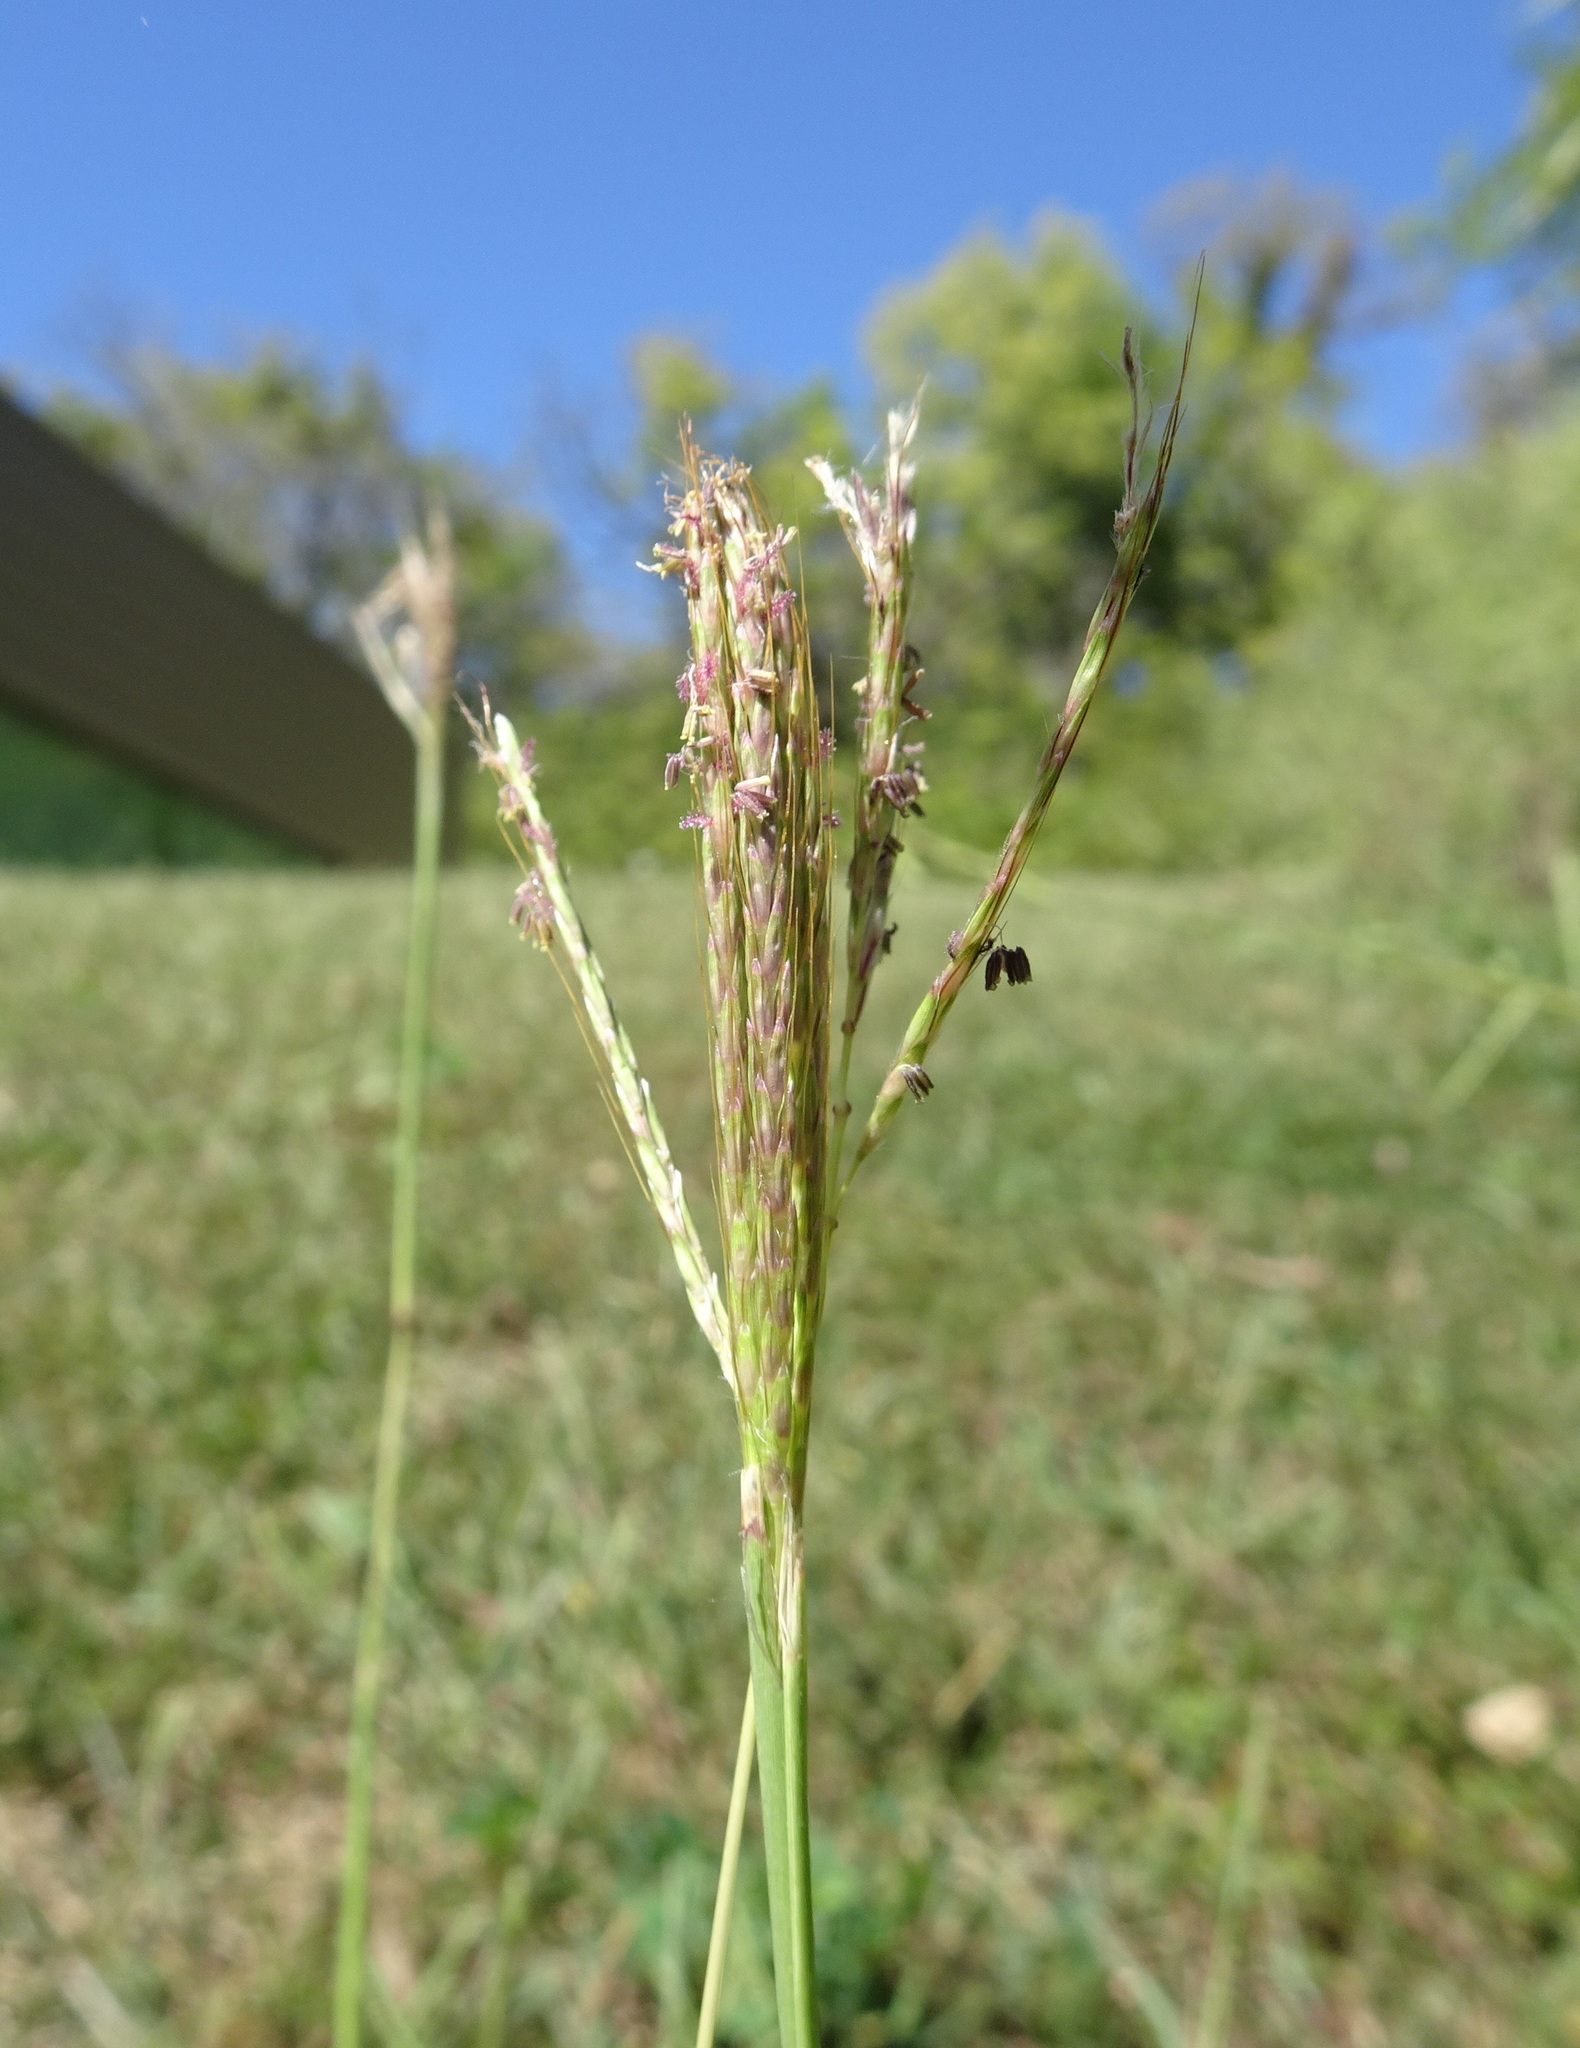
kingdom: Plantae
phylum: Tracheophyta
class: Liliopsida
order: Poales
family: Poaceae
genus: Bothriochloa
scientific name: Bothriochloa ischaemum
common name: Yellow bluestem
